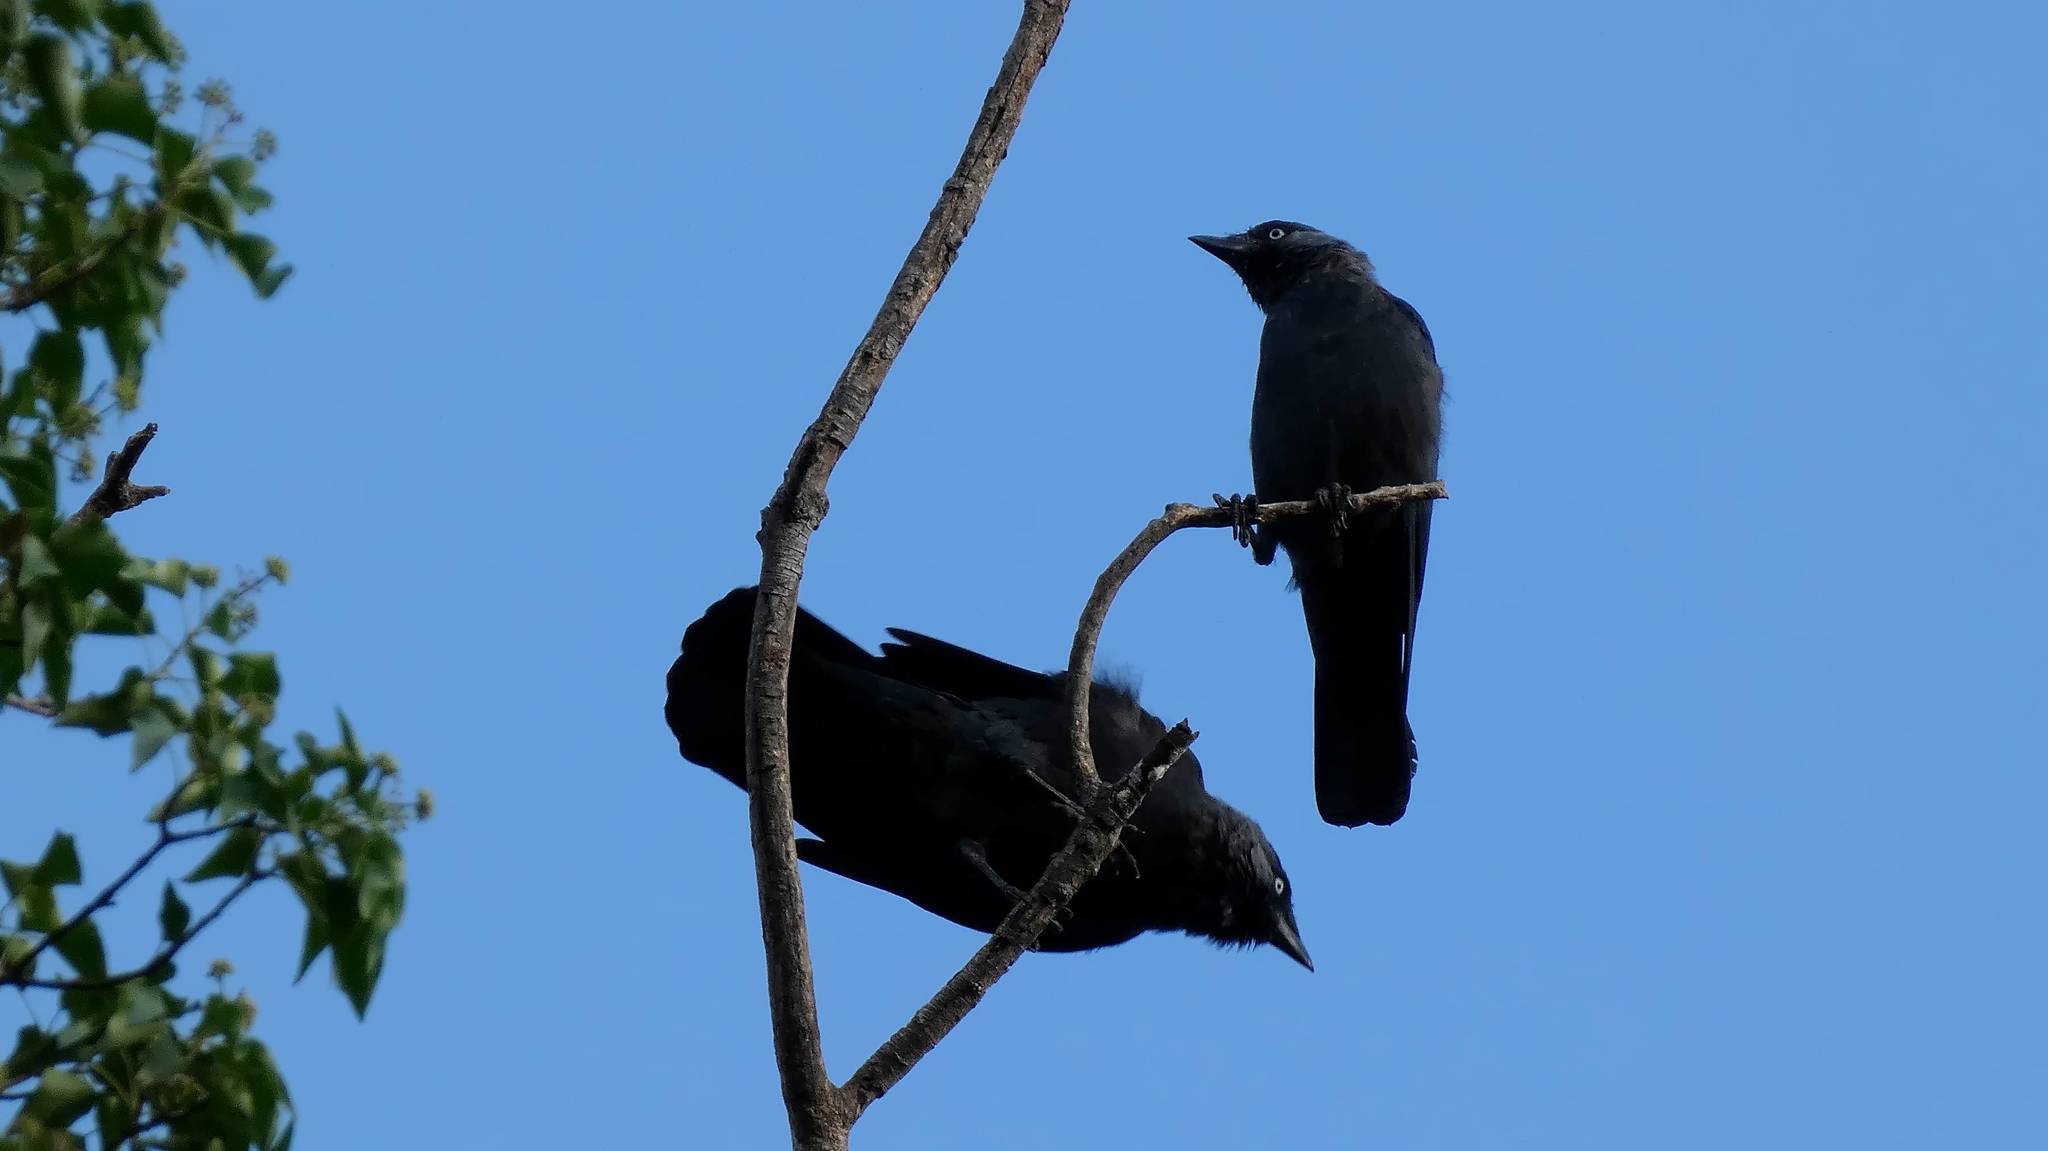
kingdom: Animalia
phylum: Chordata
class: Aves
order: Passeriformes
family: Corvidae
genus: Coloeus
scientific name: Coloeus monedula
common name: Western jackdaw
